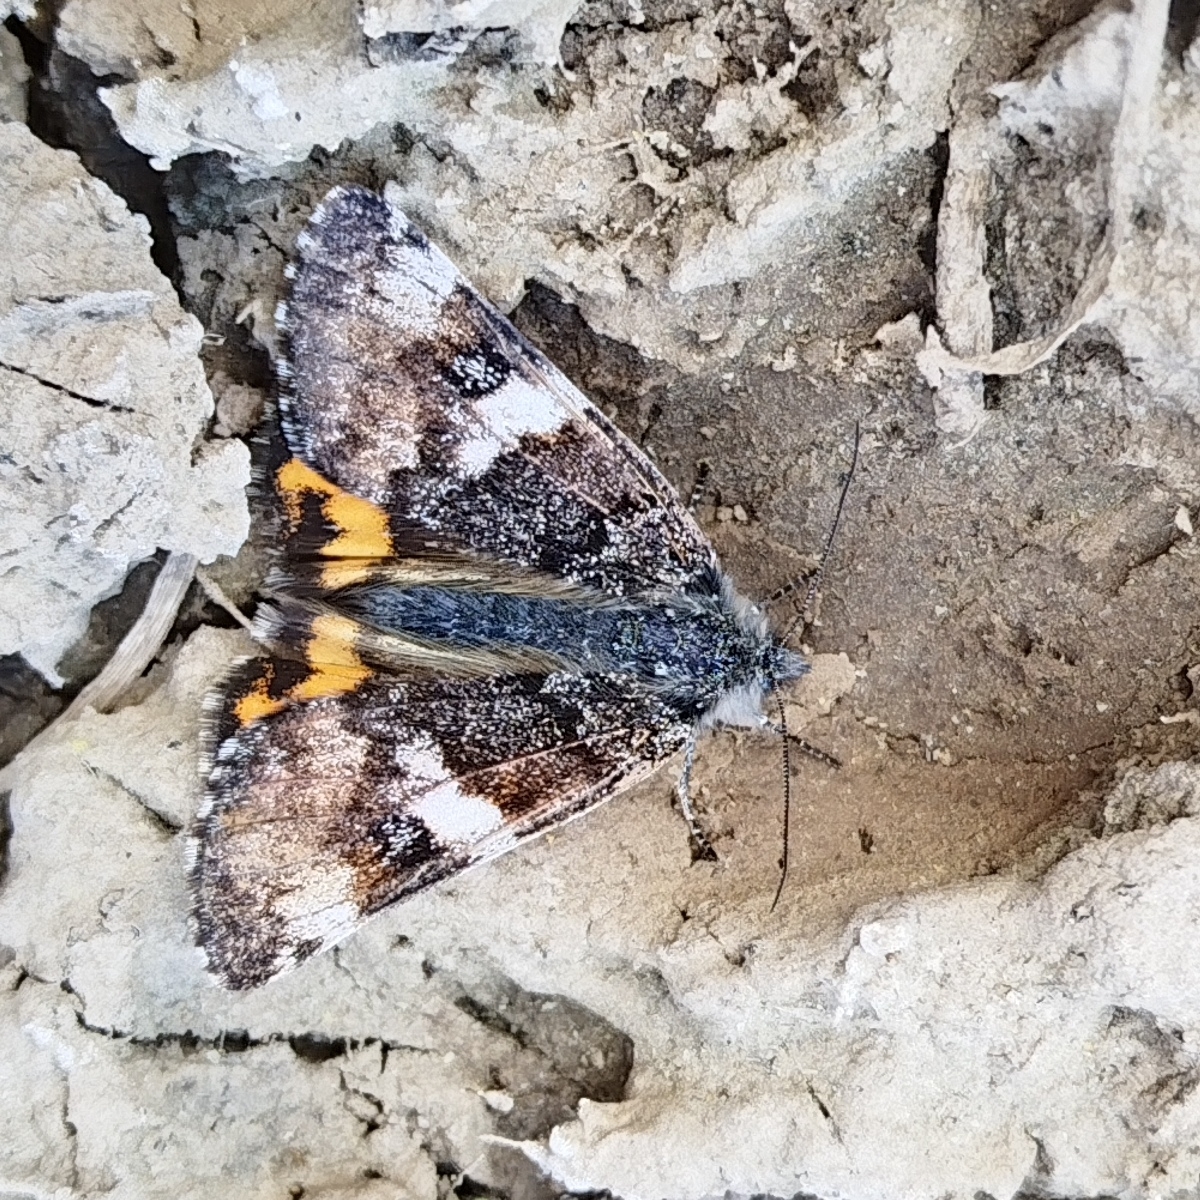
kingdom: Animalia
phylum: Arthropoda
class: Insecta
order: Lepidoptera
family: Geometridae
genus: Archiearis
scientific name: Archiearis parthenias
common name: Orange underwing
